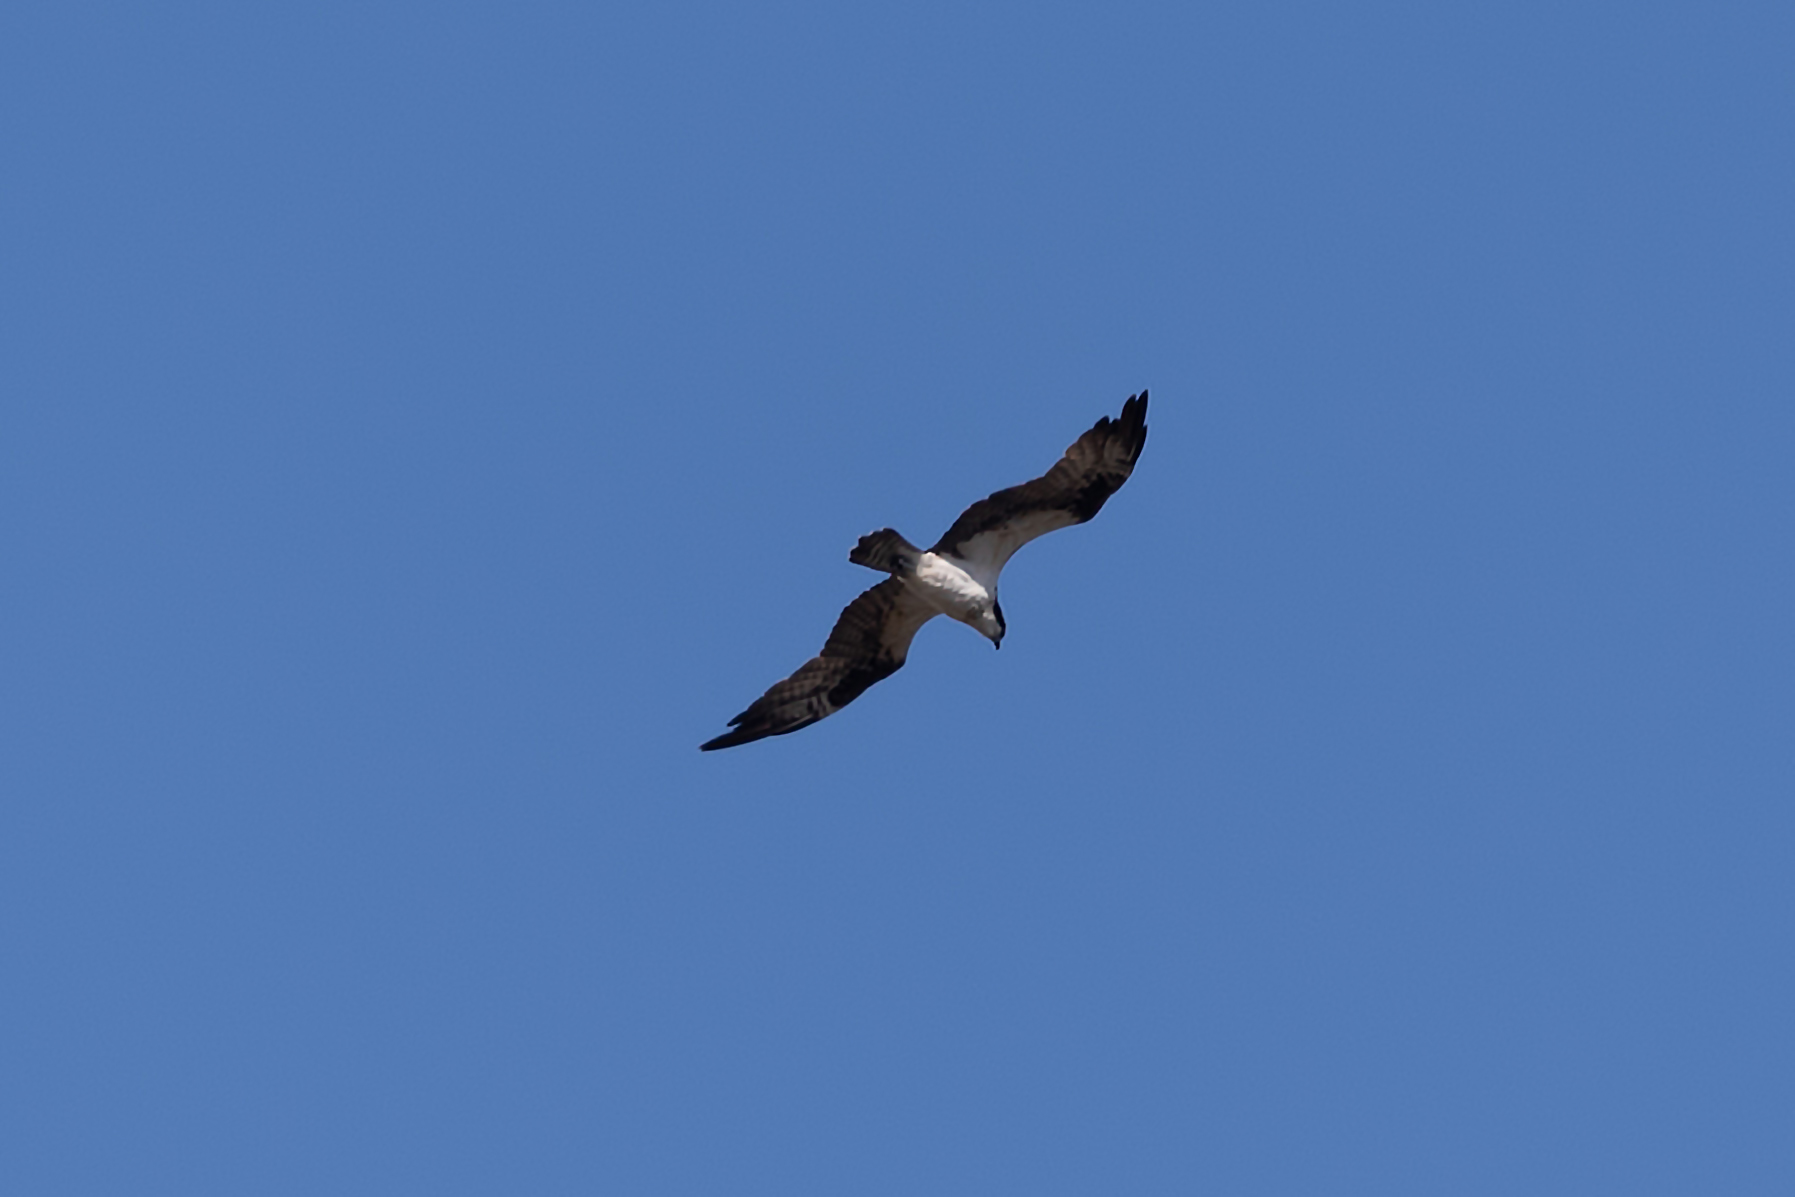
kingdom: Animalia
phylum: Chordata
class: Aves
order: Accipitriformes
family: Pandionidae
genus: Pandion
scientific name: Pandion haliaetus
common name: Osprey
